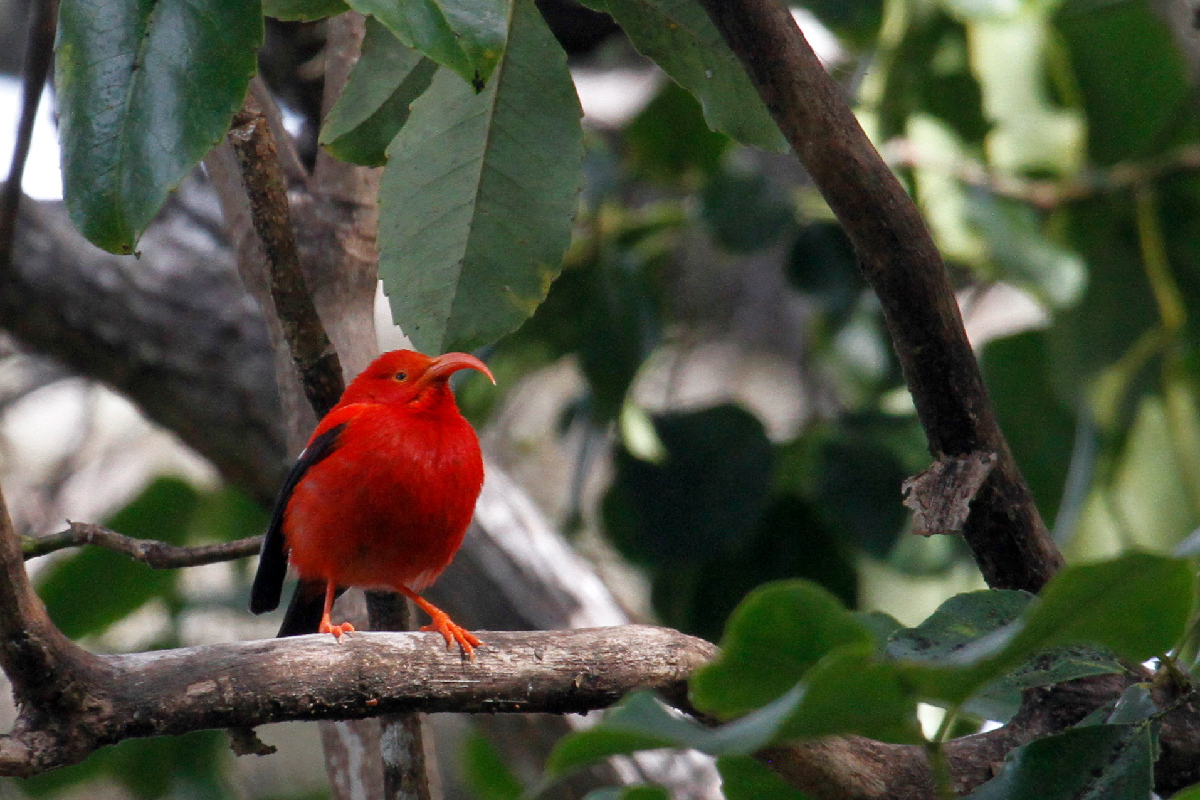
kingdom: Animalia
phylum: Chordata
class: Aves
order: Passeriformes
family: Fringillidae
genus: Vestiaria
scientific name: Vestiaria coccinea
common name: Iiwi
